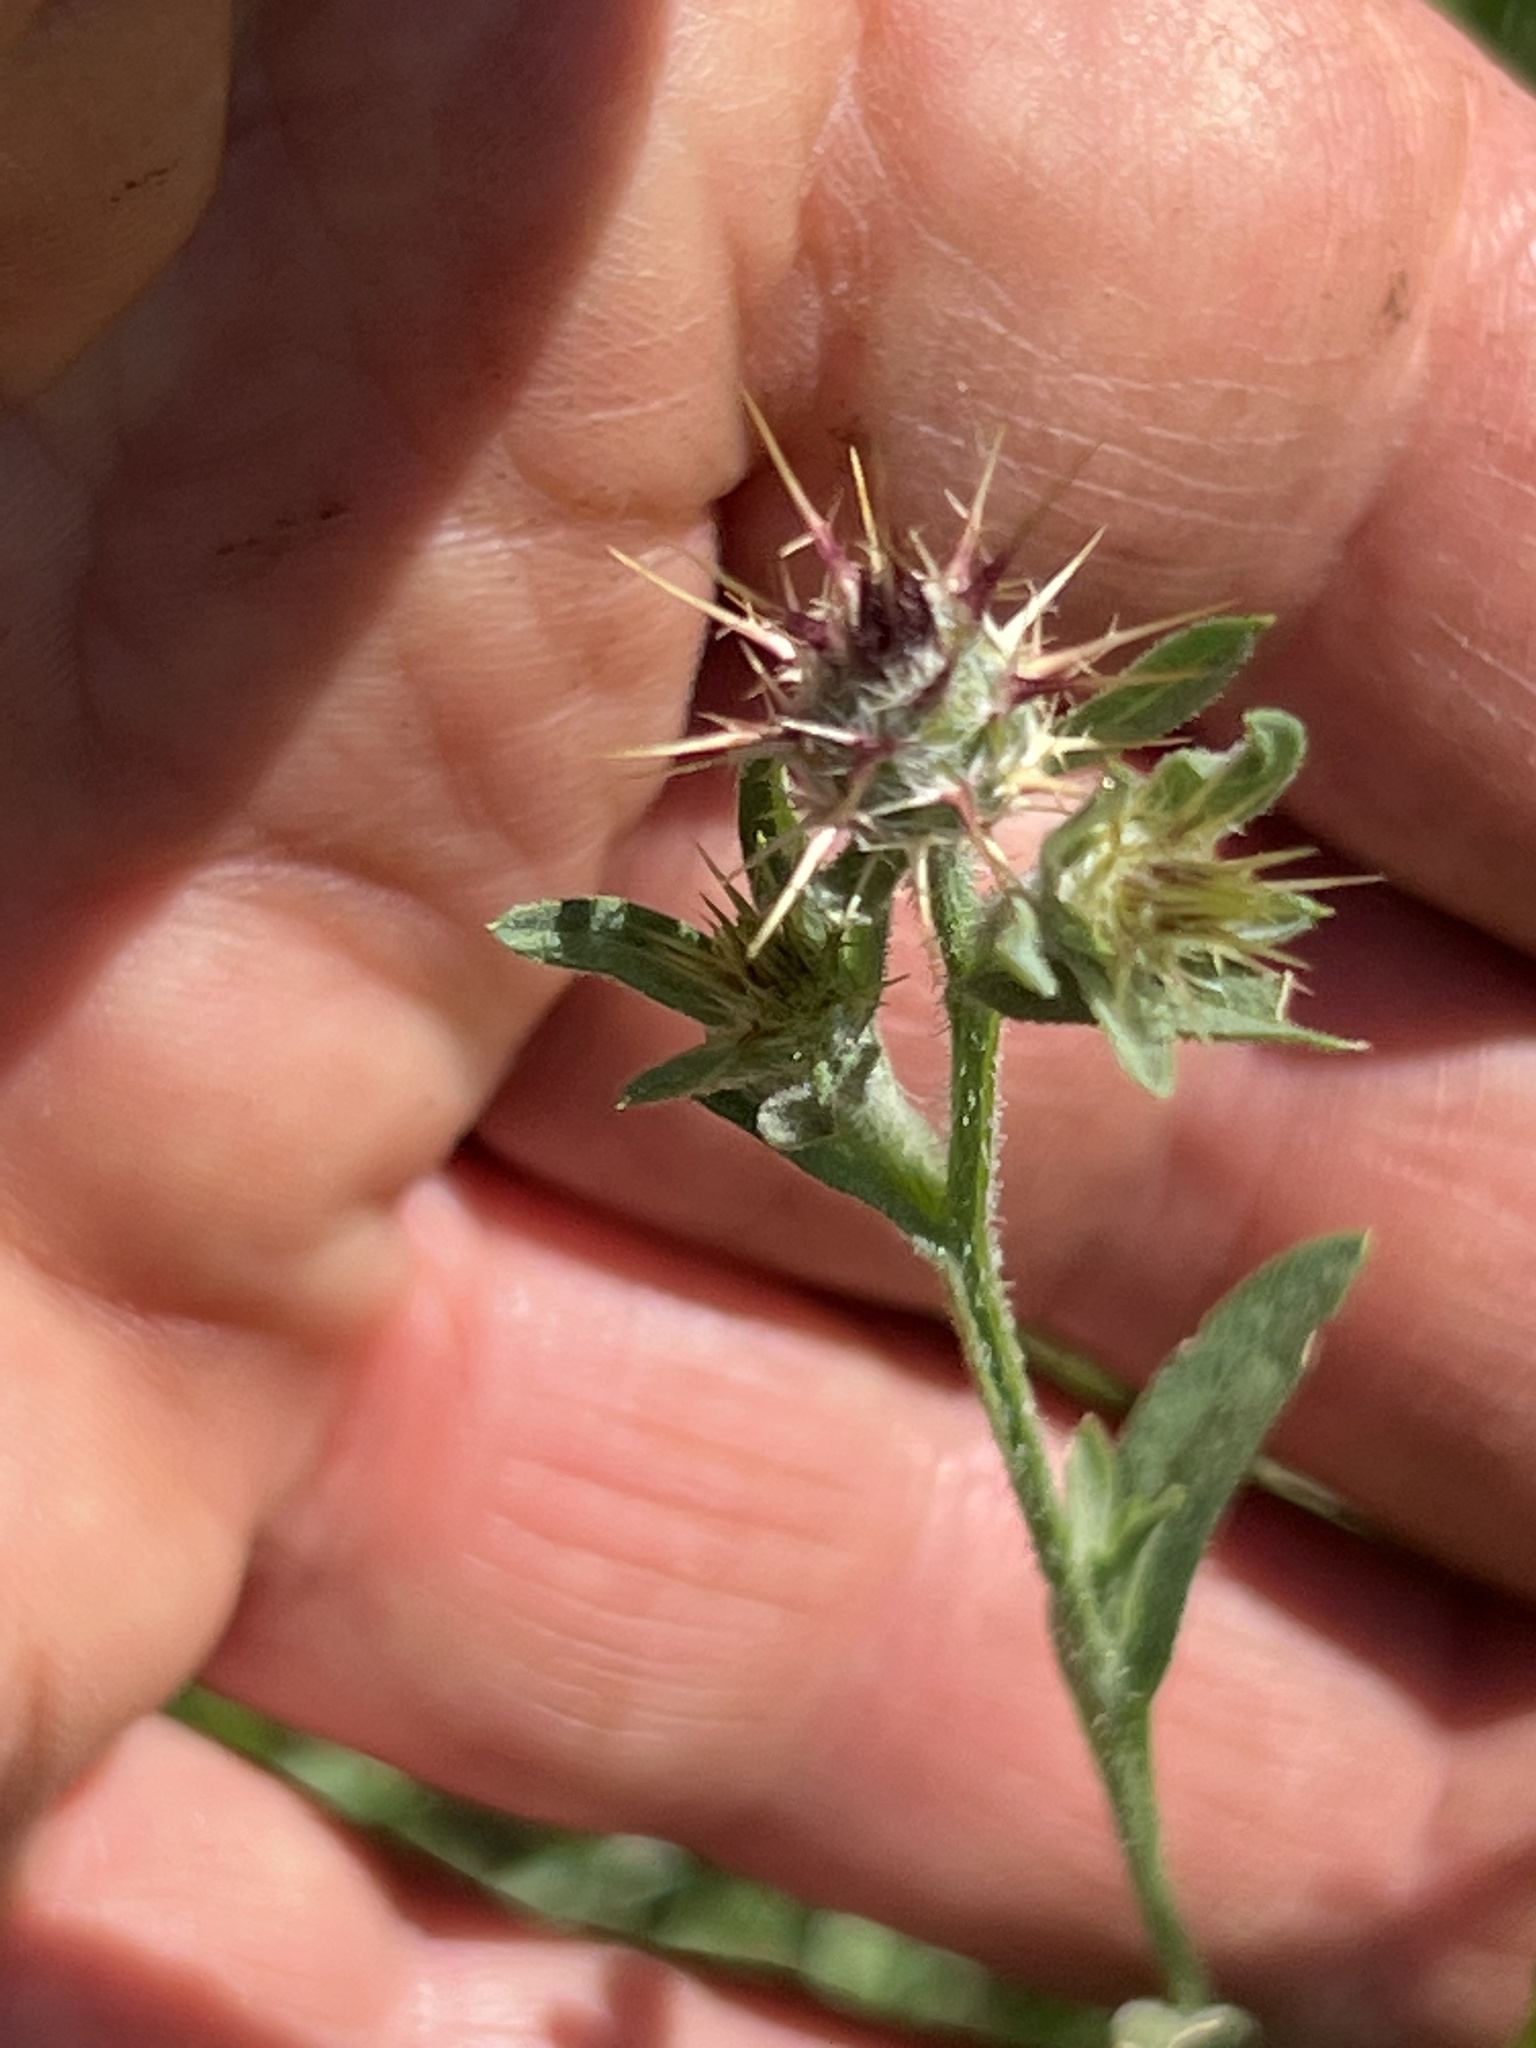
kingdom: Plantae
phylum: Tracheophyta
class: Magnoliopsida
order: Asterales
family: Asteraceae
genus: Centaurea
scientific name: Centaurea melitensis
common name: Maltese star-thistle
